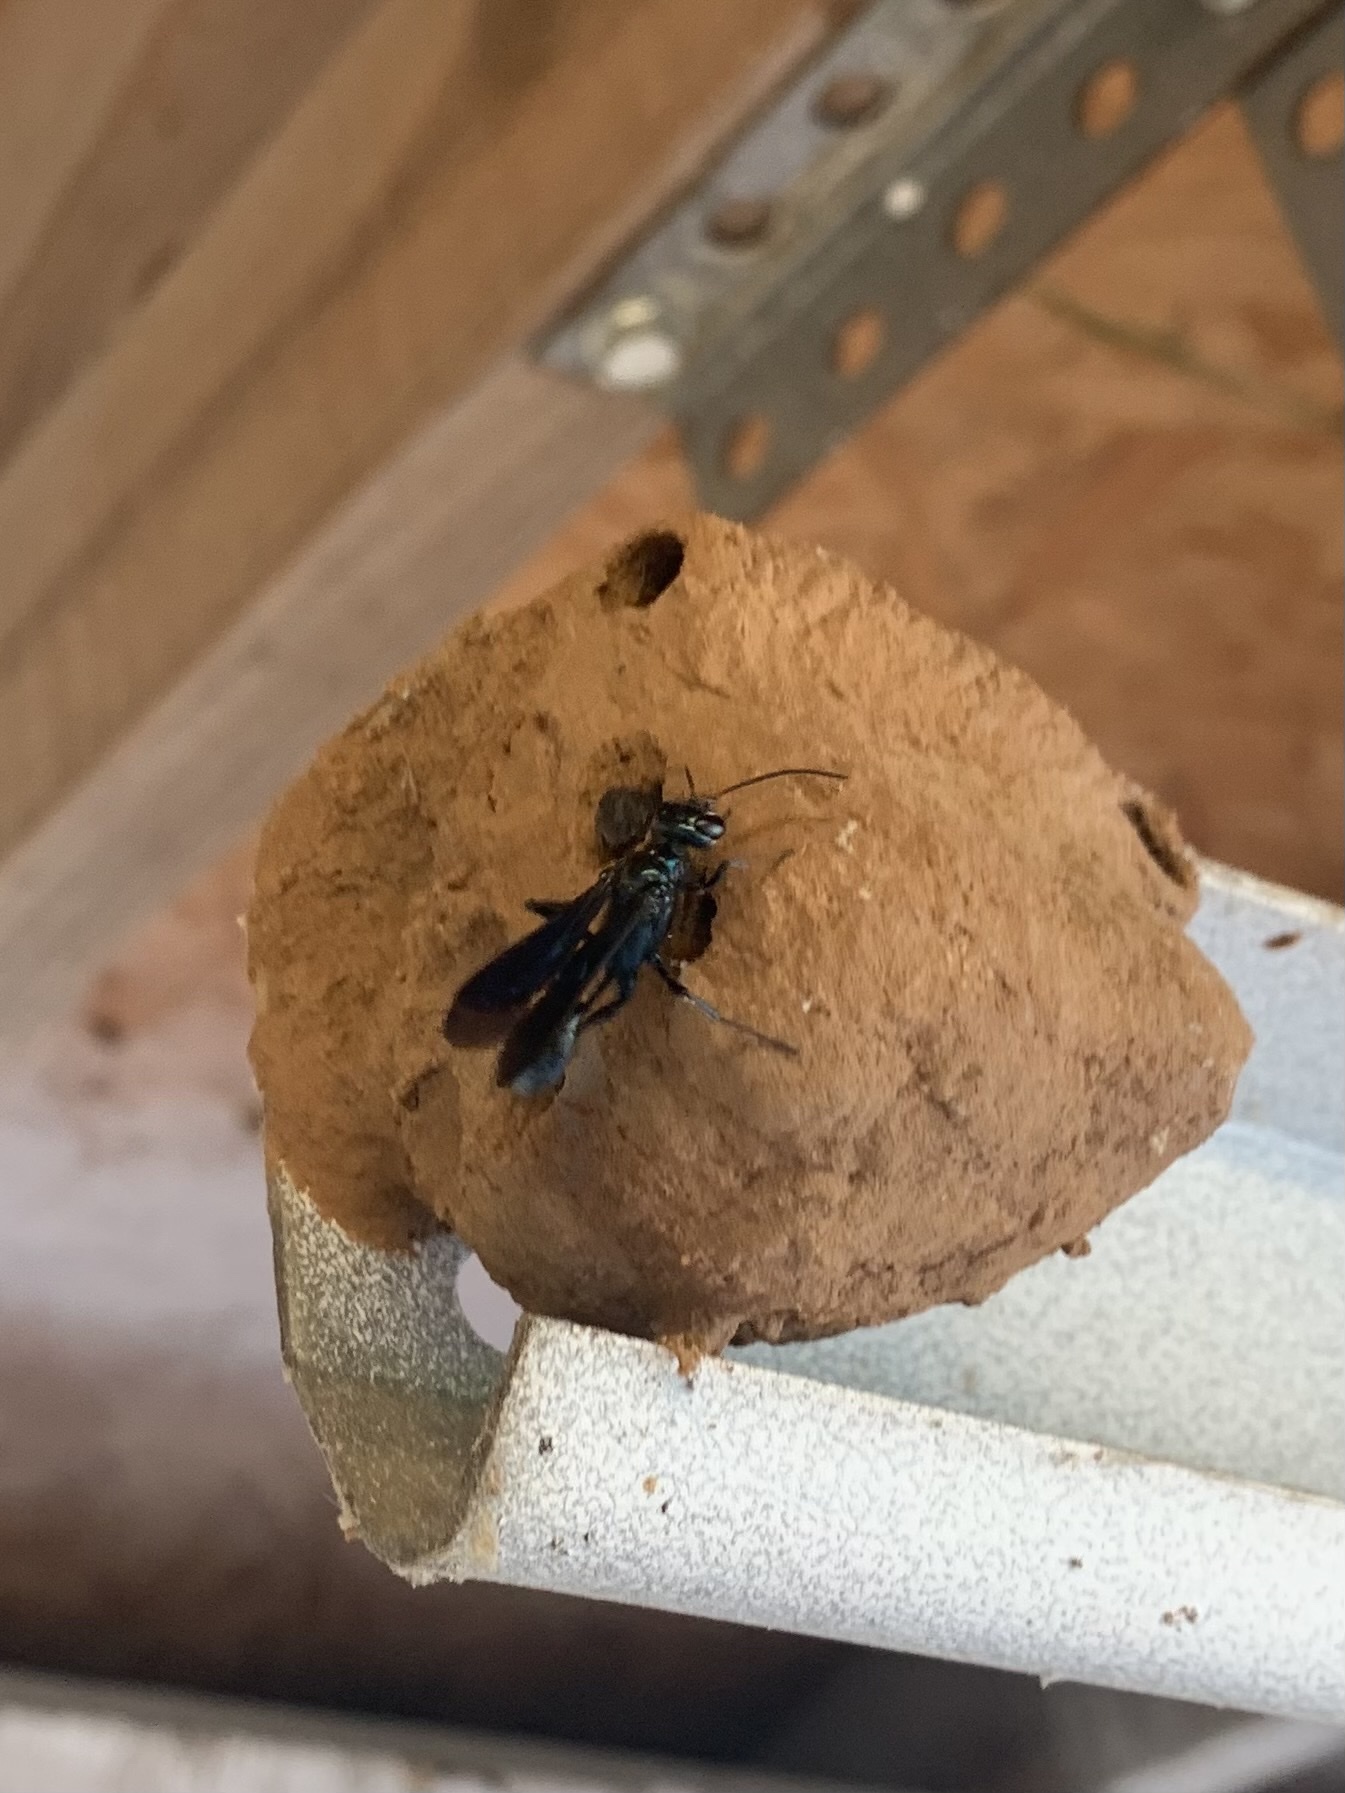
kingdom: Animalia
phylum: Arthropoda
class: Insecta
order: Hymenoptera
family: Sphecidae
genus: Chalybion
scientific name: Chalybion californicum
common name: Mud dauber
